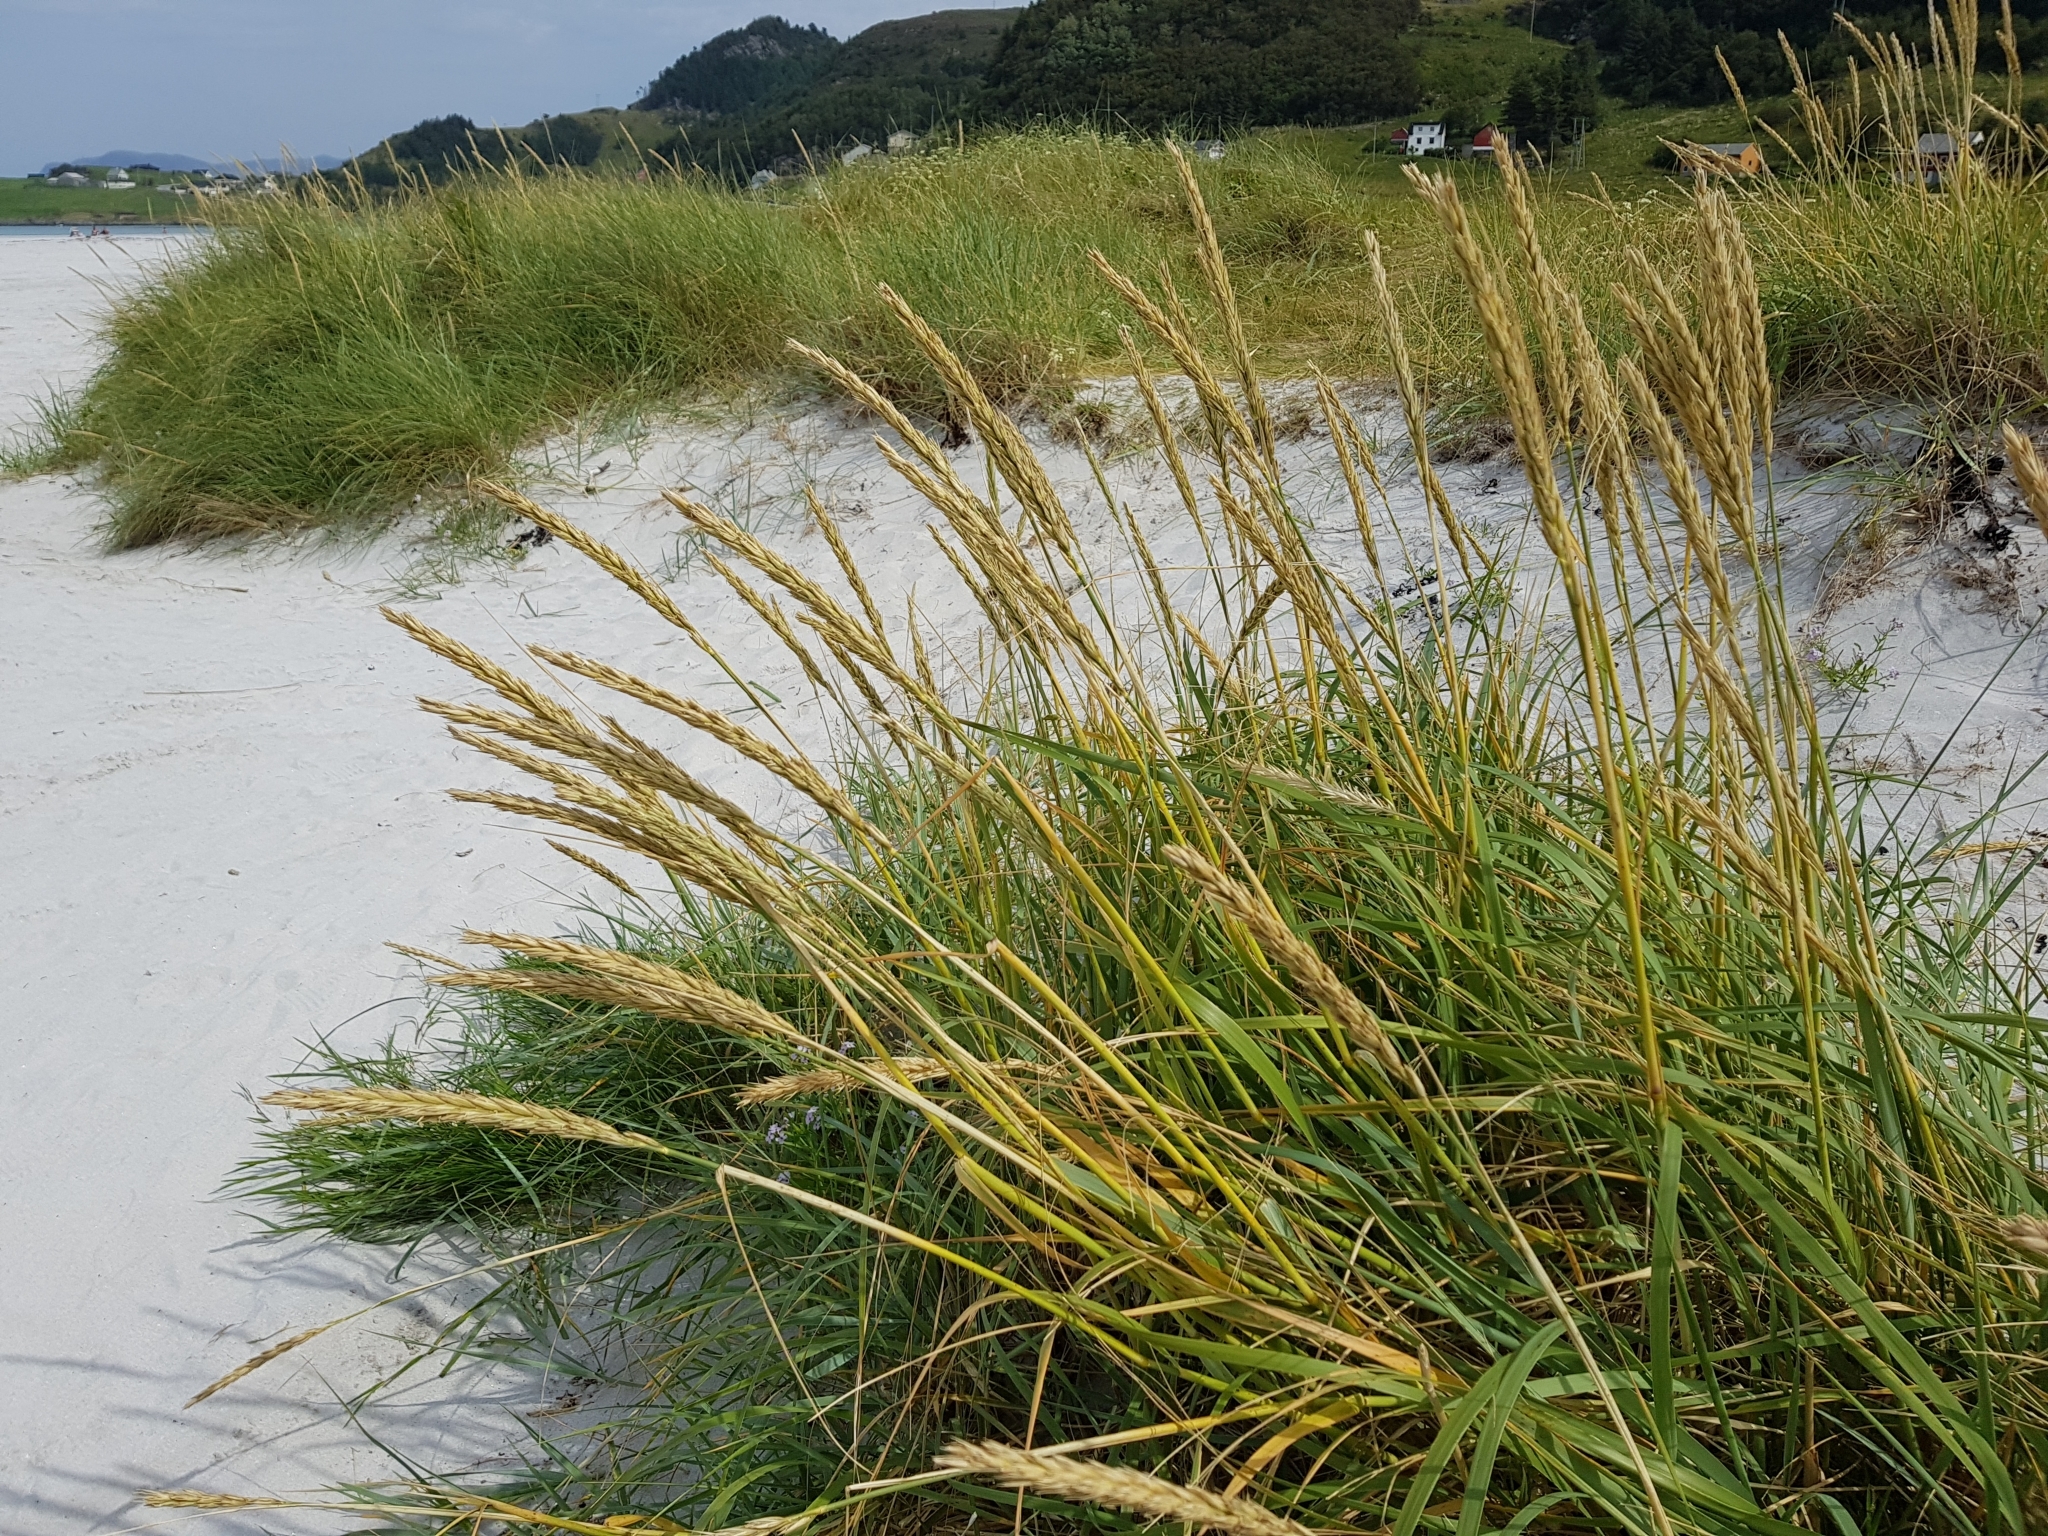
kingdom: Plantae
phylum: Tracheophyta
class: Liliopsida
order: Poales
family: Poaceae
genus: Leymus
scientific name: Leymus arenarius
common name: Lyme-grass
